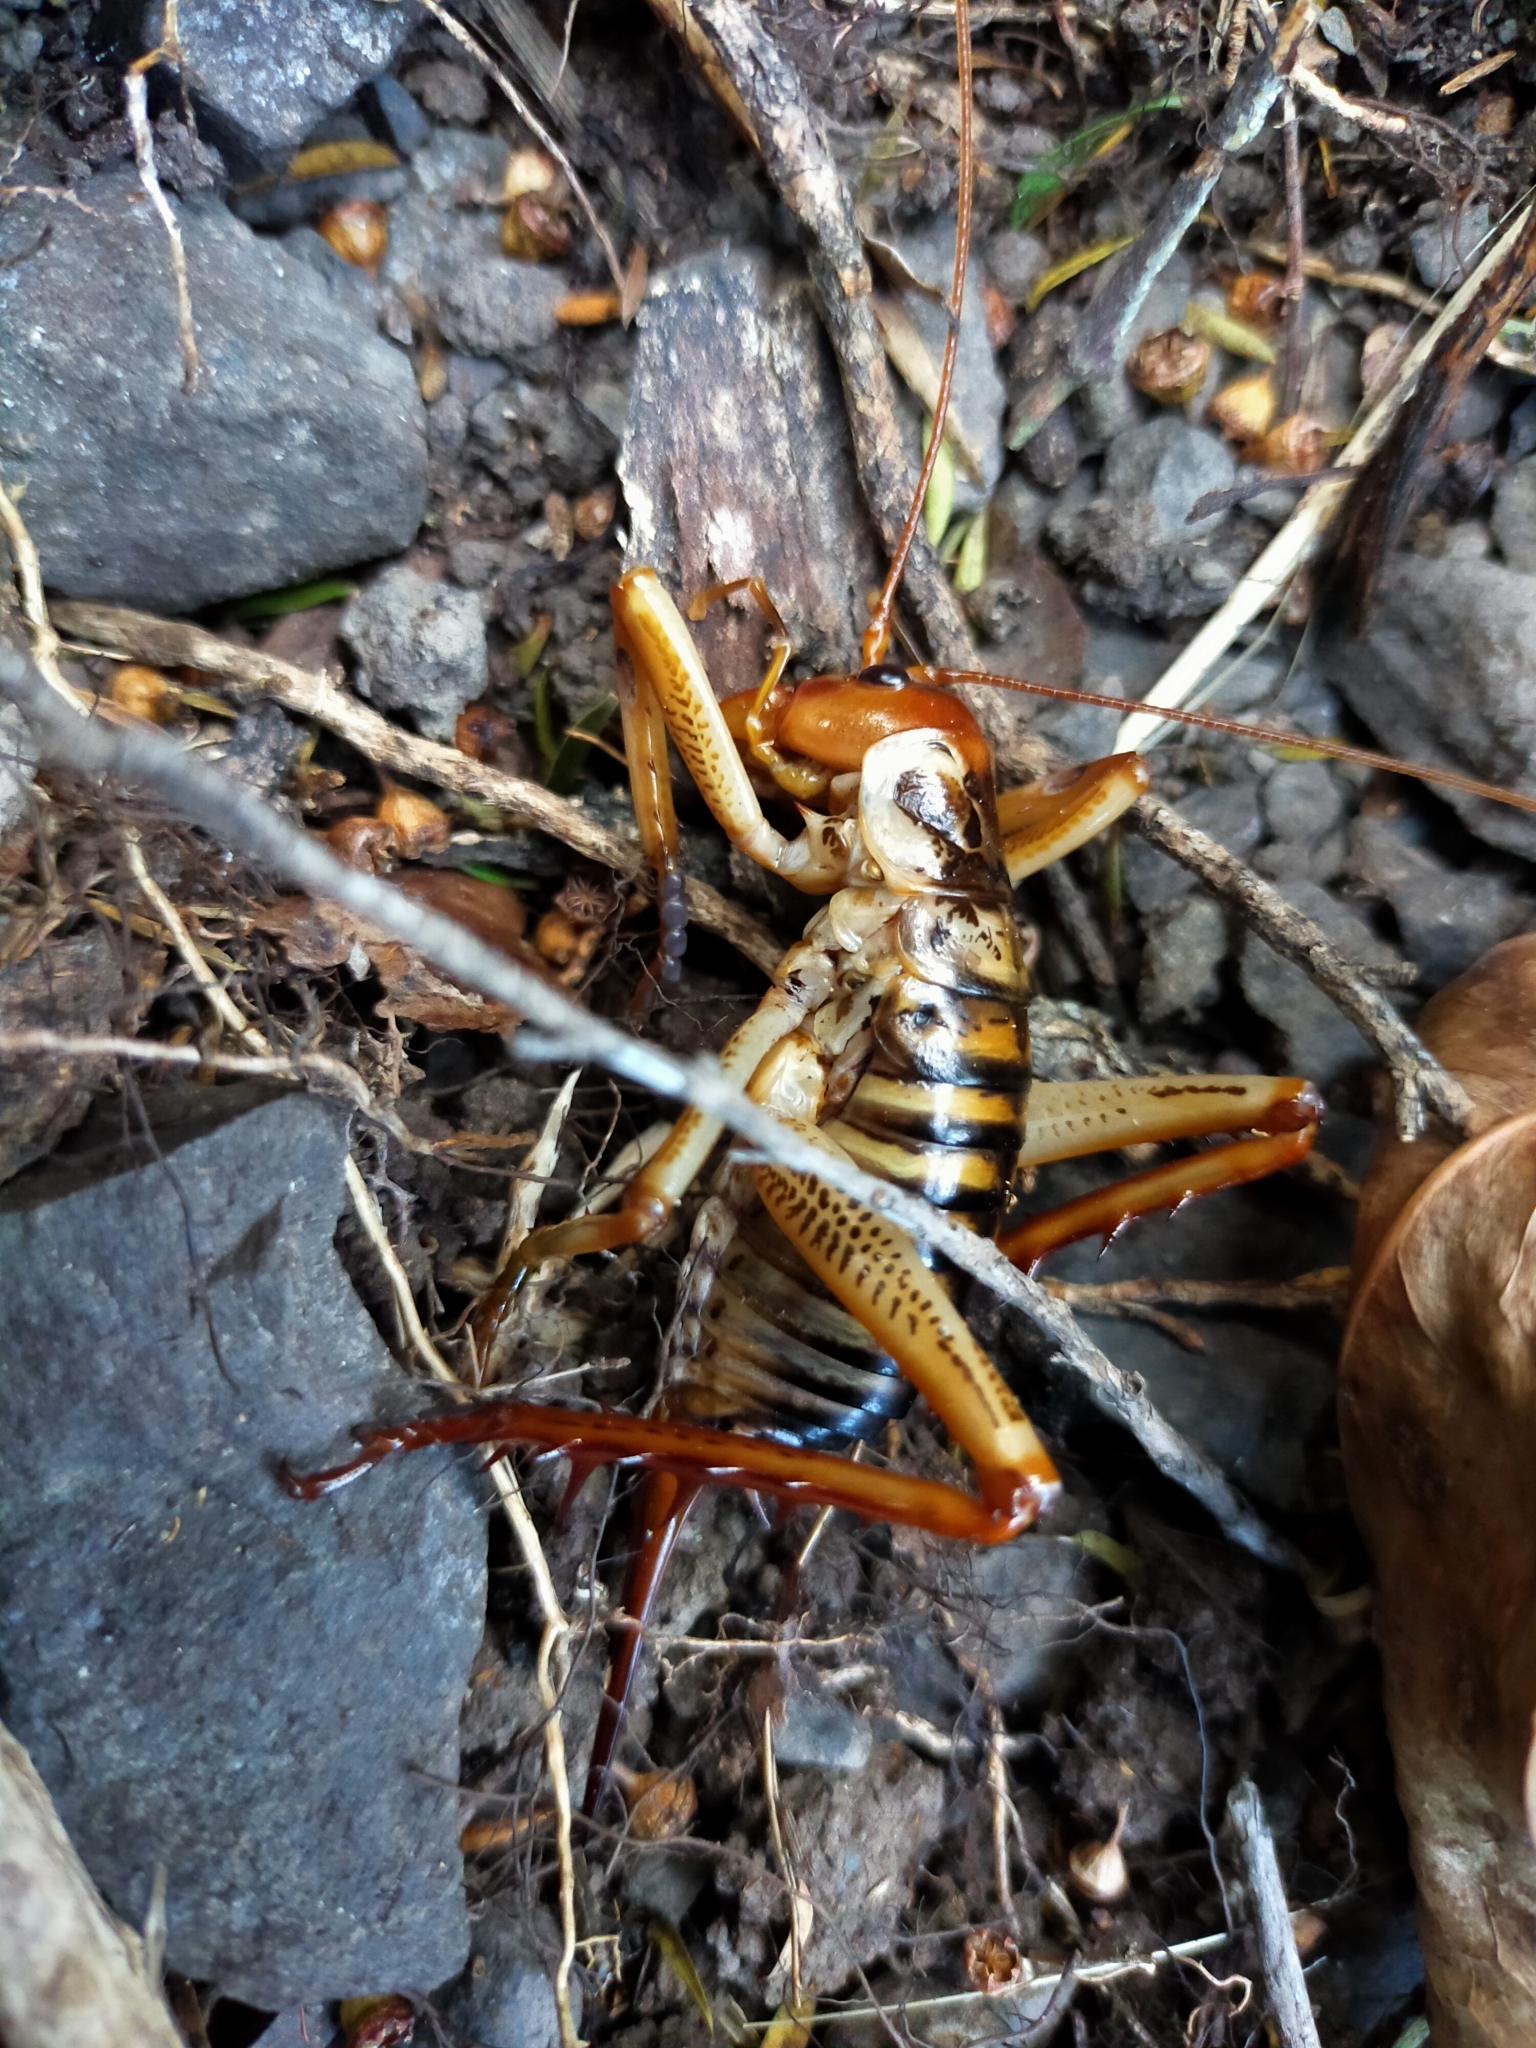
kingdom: Animalia
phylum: Arthropoda
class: Insecta
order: Orthoptera
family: Anostostomatidae
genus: Hemideina
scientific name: Hemideina crassidens
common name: Wellington tree weta
